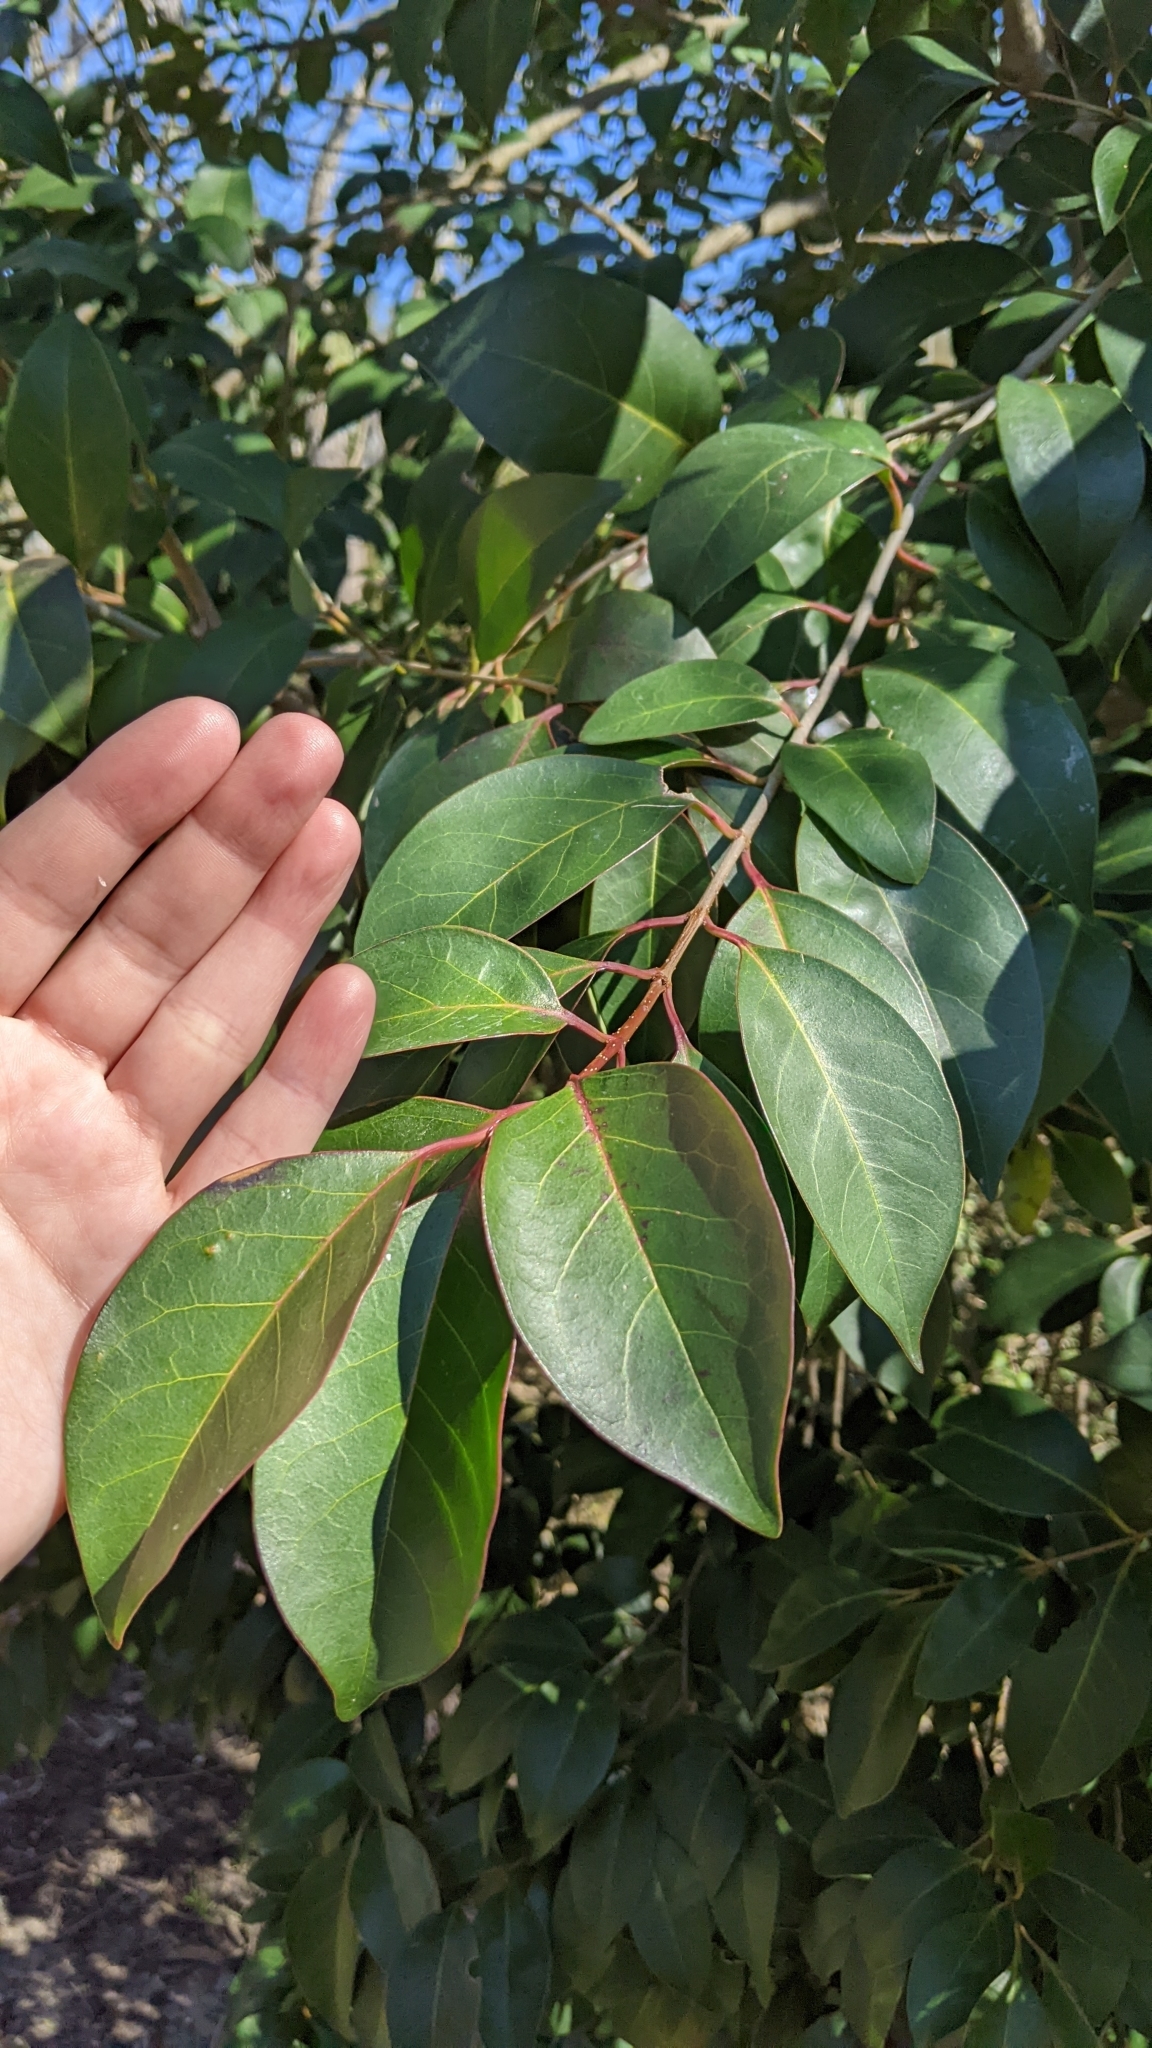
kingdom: Plantae
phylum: Tracheophyta
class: Magnoliopsida
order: Lamiales
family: Oleaceae
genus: Ligustrum
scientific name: Ligustrum lucidum
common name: Glossy privet
